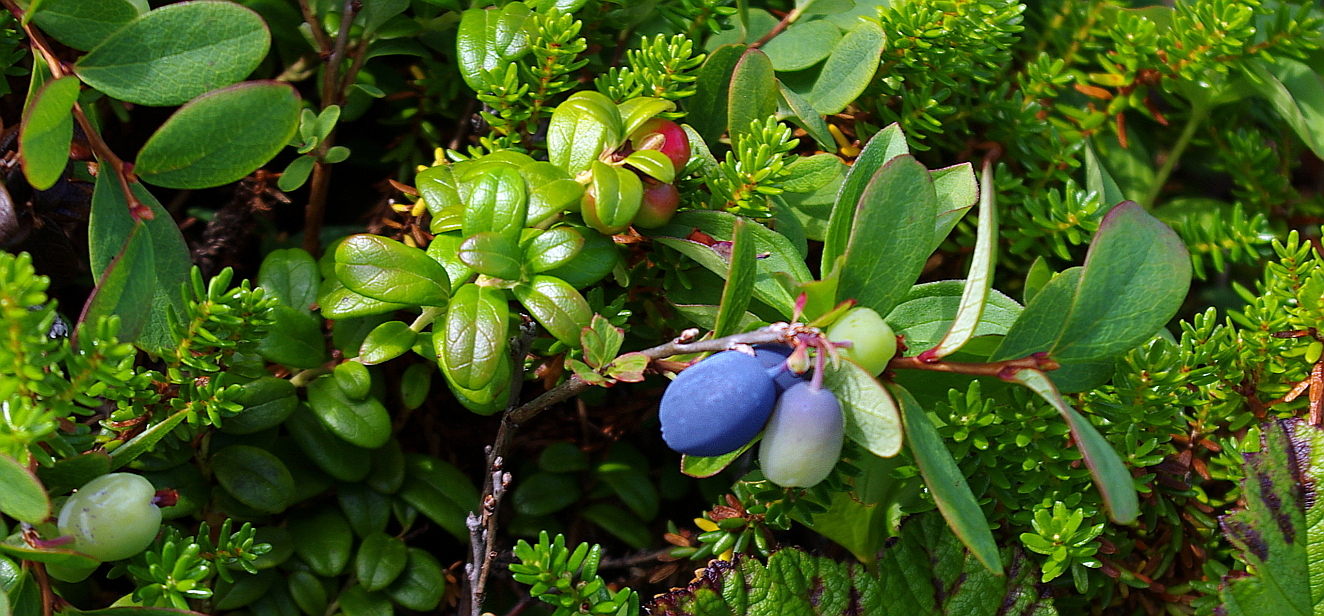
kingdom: Plantae
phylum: Tracheophyta
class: Magnoliopsida
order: Ericales
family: Ericaceae
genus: Vaccinium
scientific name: Vaccinium vitis-idaea
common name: Cowberry
